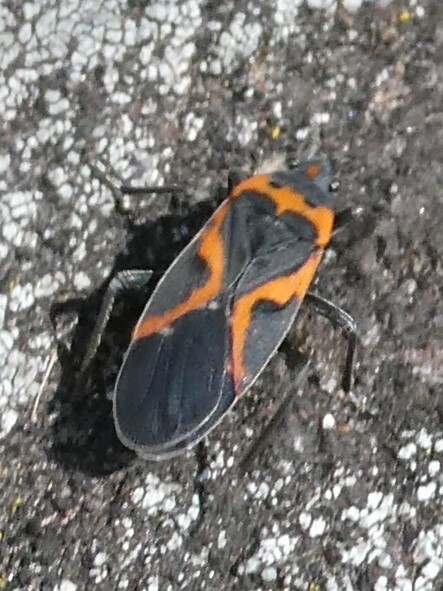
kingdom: Animalia
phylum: Arthropoda
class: Insecta
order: Hemiptera
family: Lygaeidae
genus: Lygaeus
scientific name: Lygaeus kalmii
